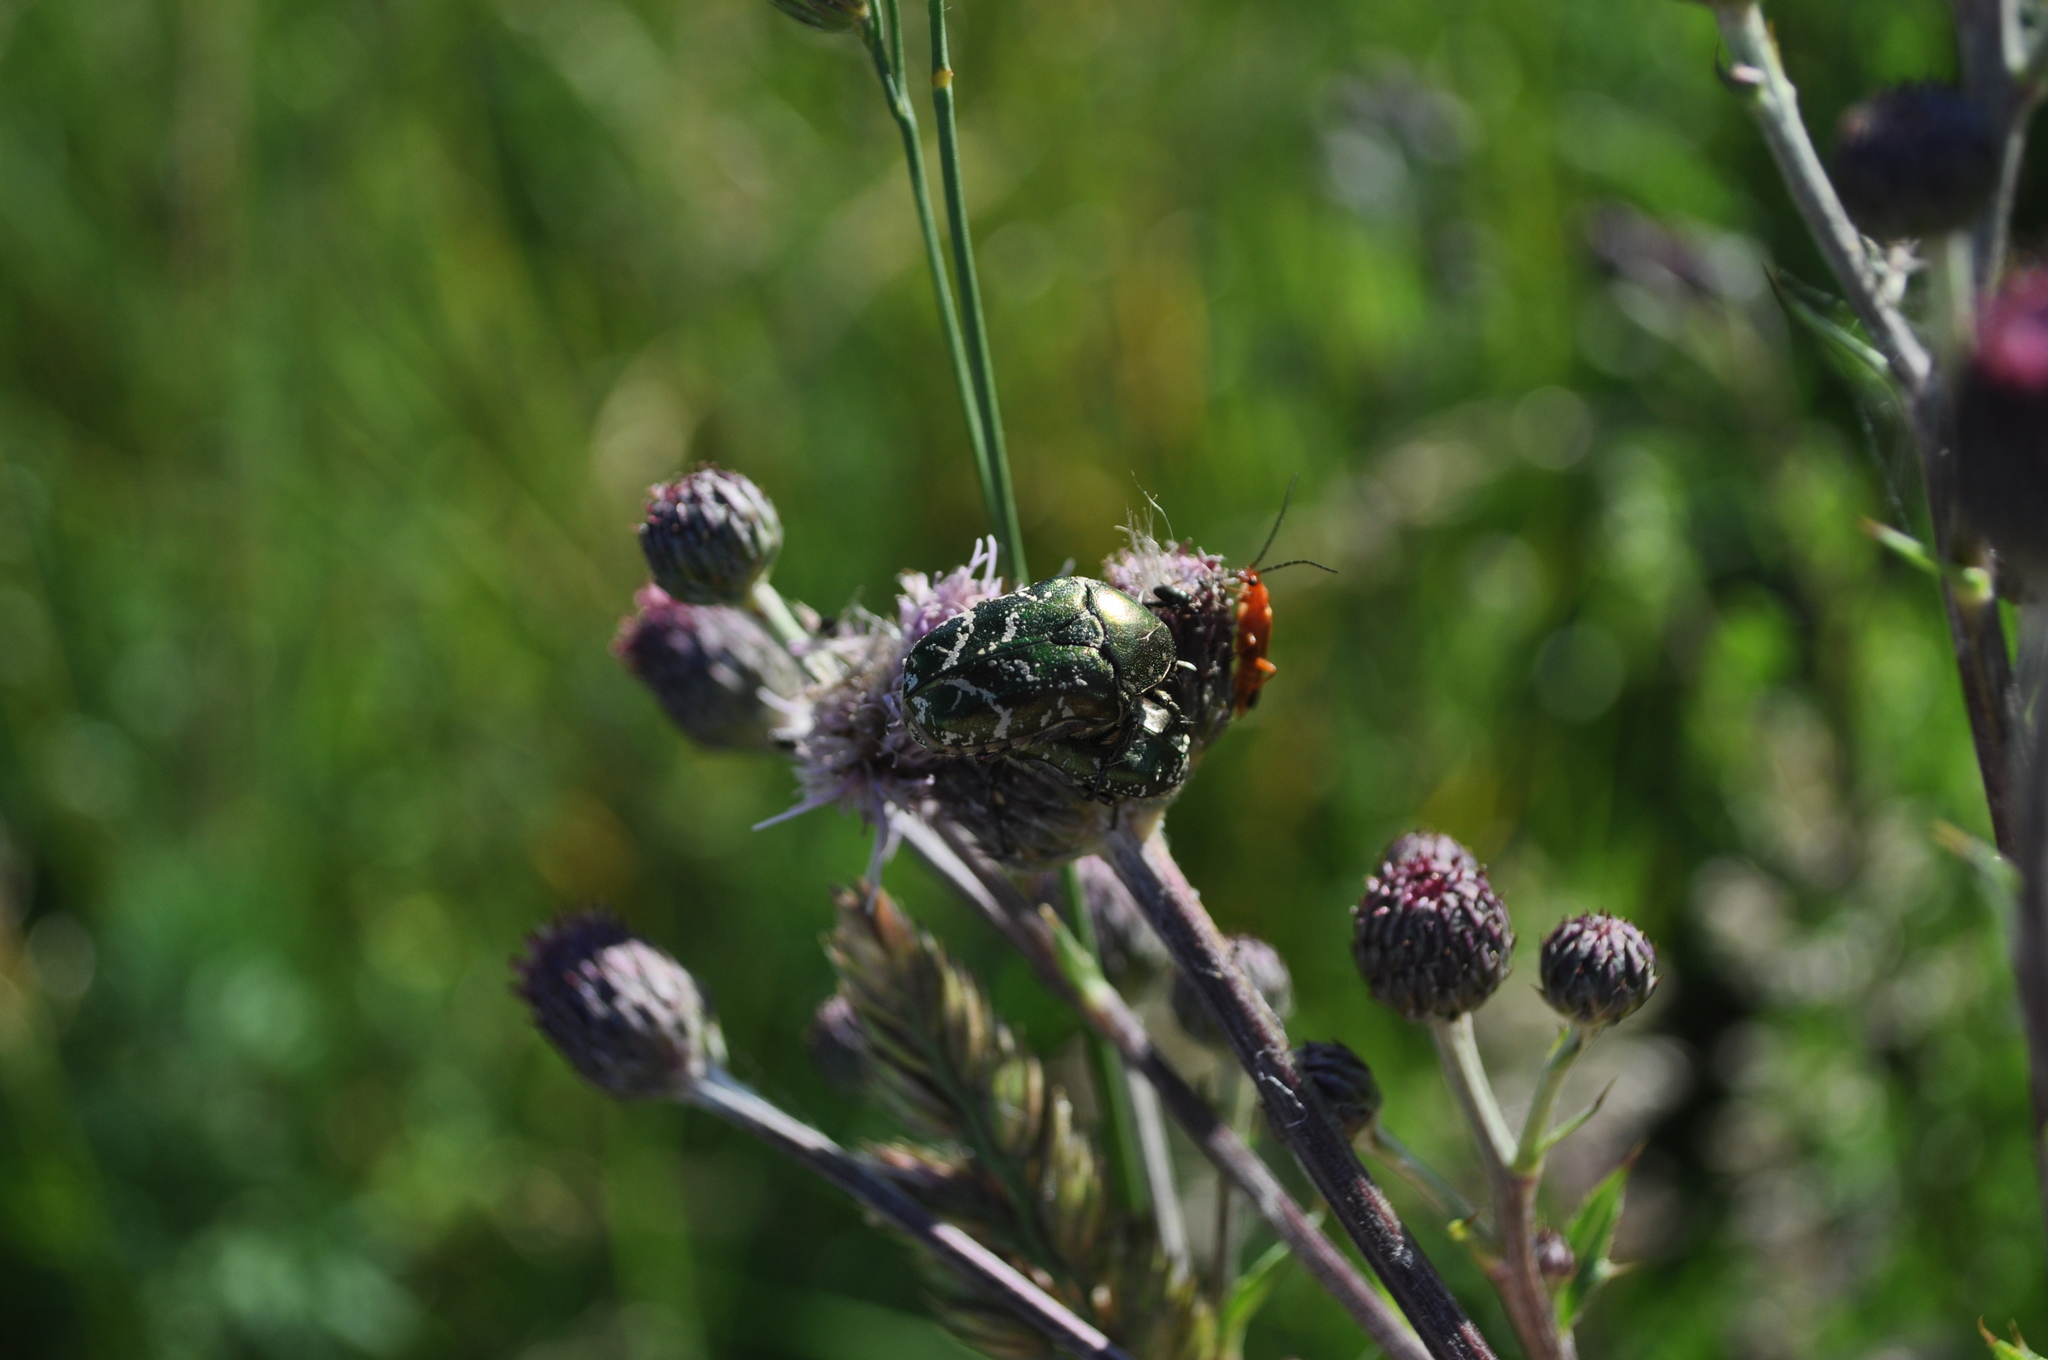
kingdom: Animalia
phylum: Arthropoda
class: Insecta
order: Coleoptera
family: Scarabaeidae
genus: Protaetia
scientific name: Protaetia cuprea
